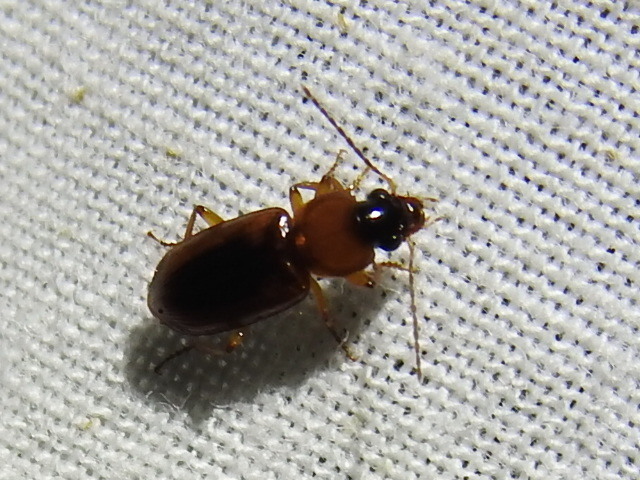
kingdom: Animalia
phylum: Arthropoda
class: Insecta
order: Coleoptera
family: Carabidae
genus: Stenolophus
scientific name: Stenolophus dissimilis
